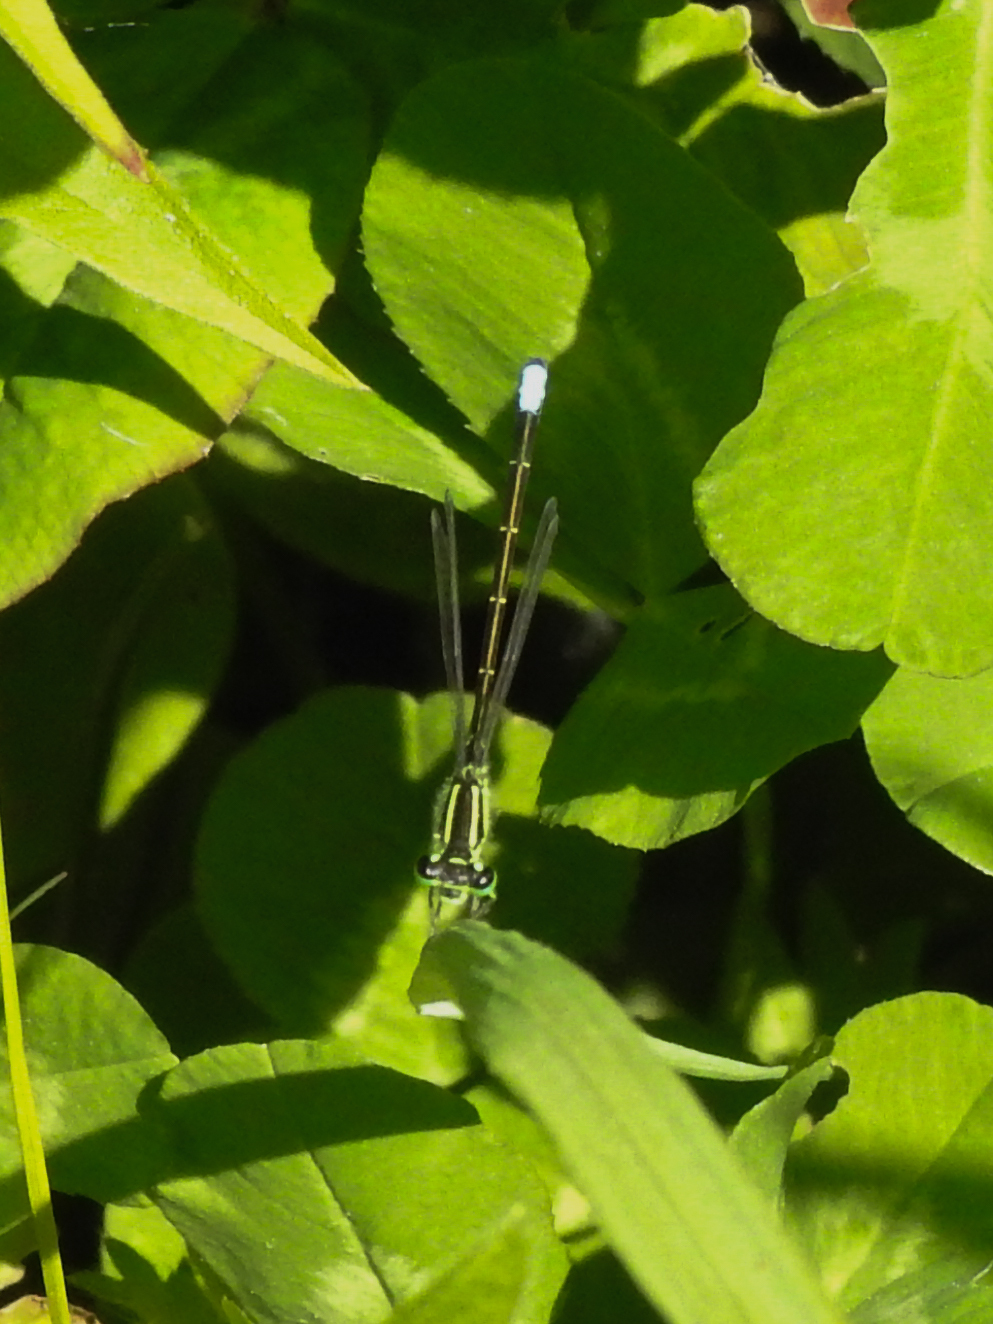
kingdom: Animalia
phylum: Arthropoda
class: Insecta
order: Odonata
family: Coenagrionidae
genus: Ischnura
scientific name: Ischnura verticalis
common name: Eastern forktail
